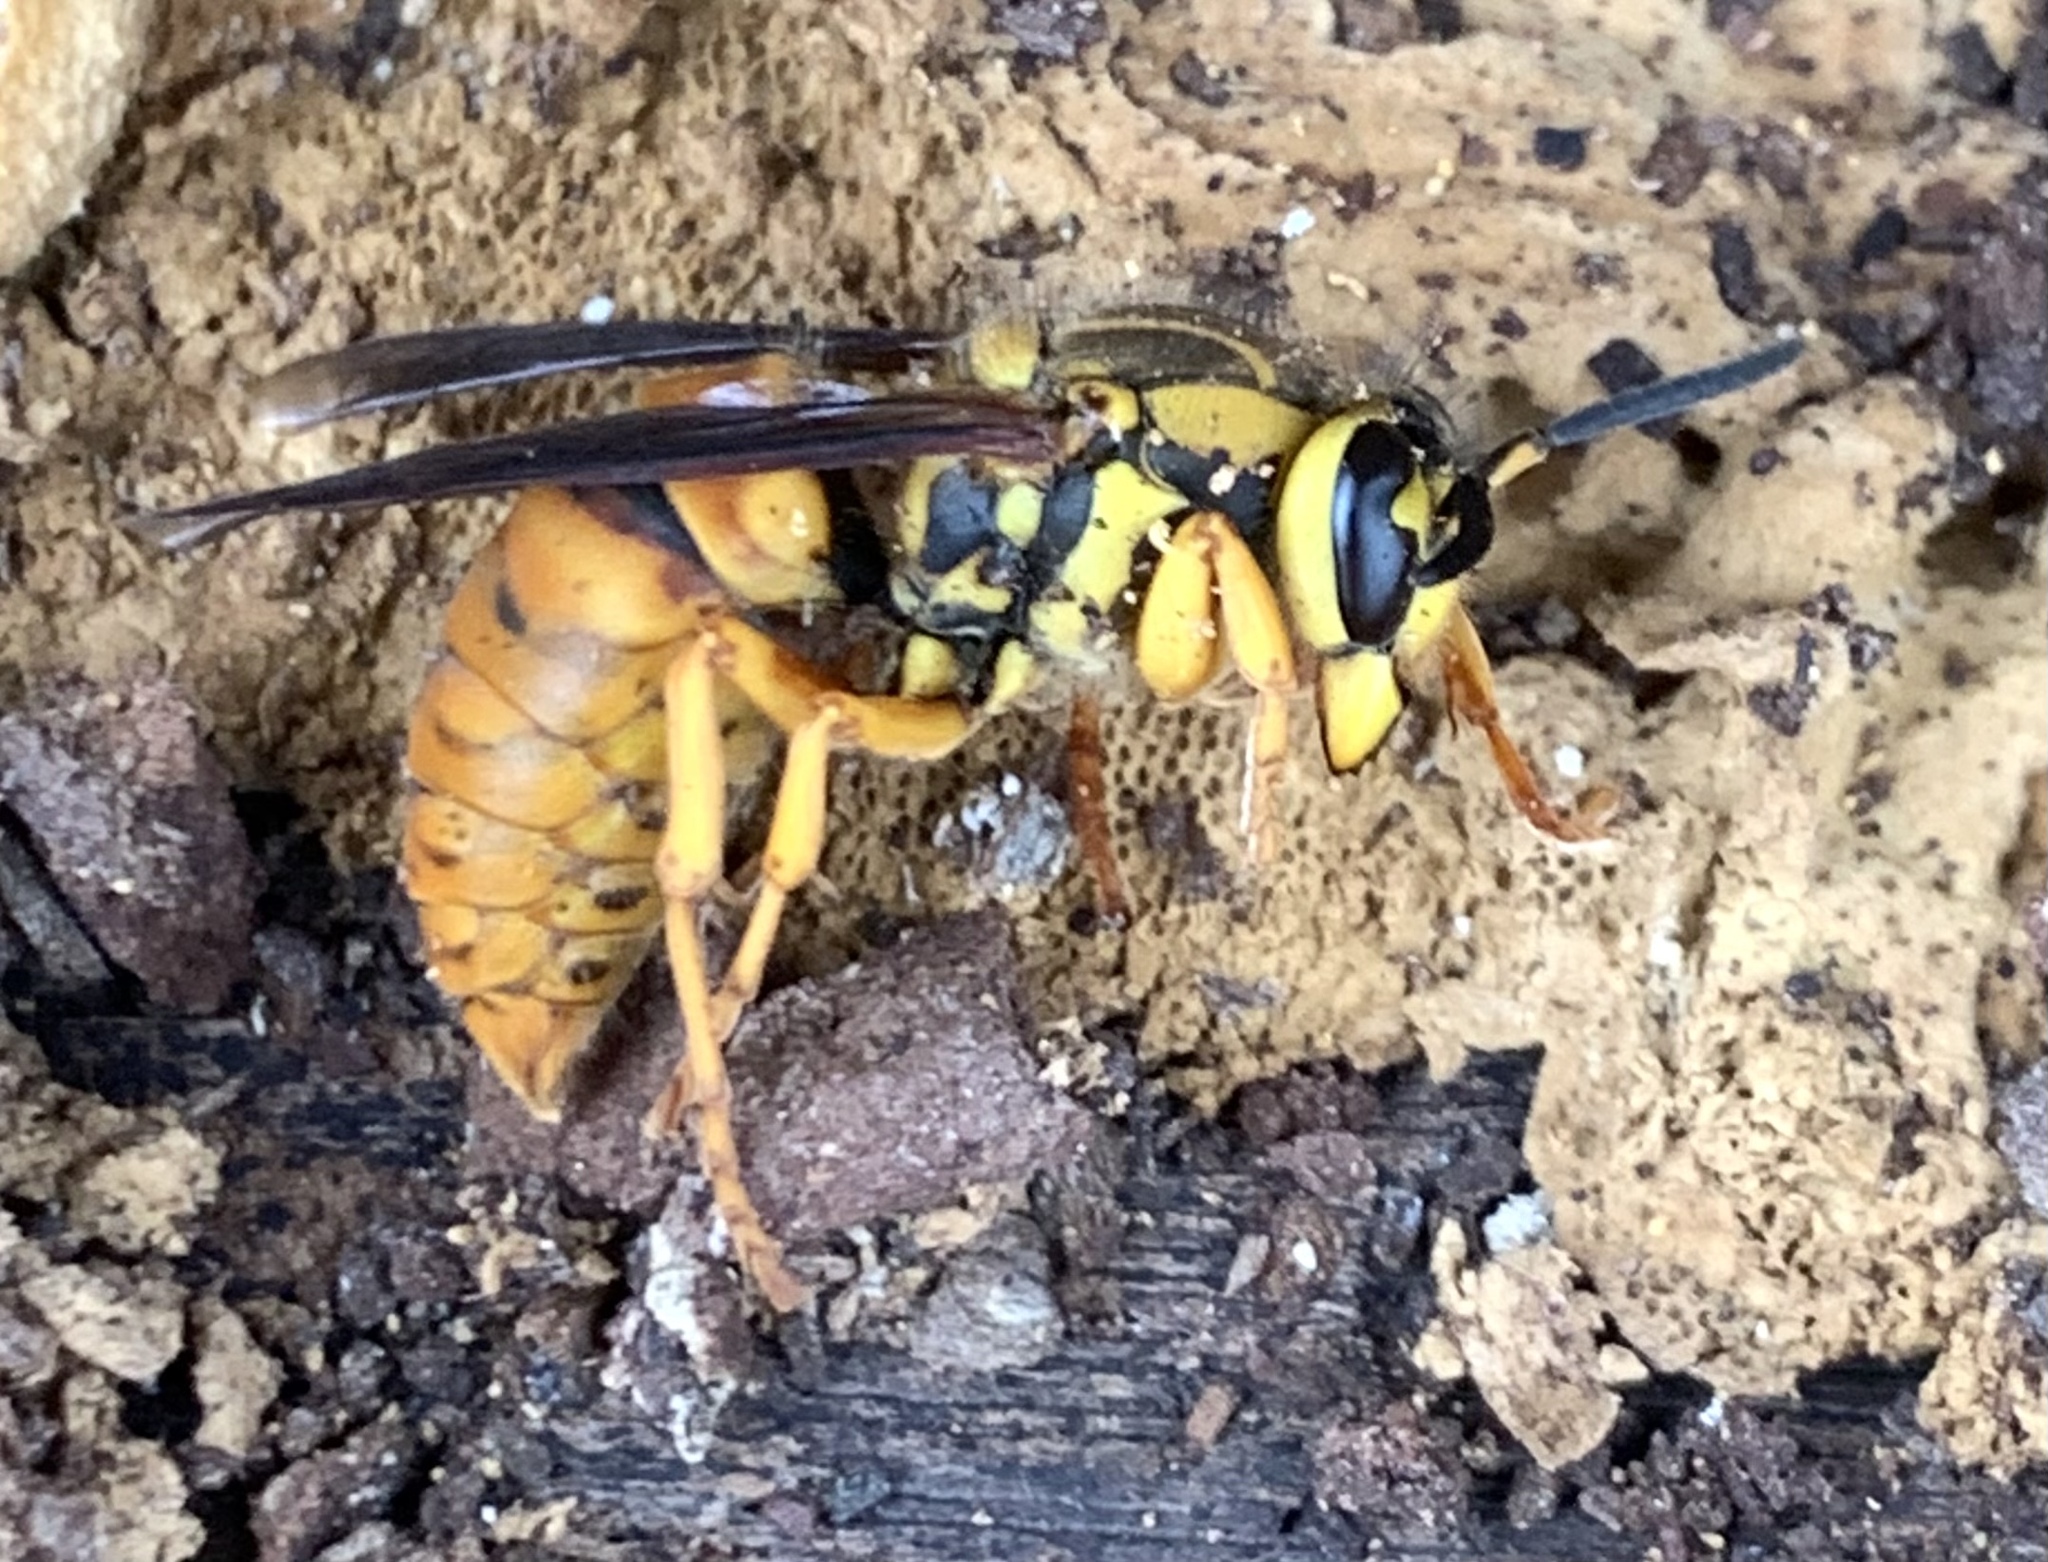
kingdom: Animalia
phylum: Arthropoda
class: Insecta
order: Hymenoptera
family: Vespidae
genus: Vespula
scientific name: Vespula squamosa
